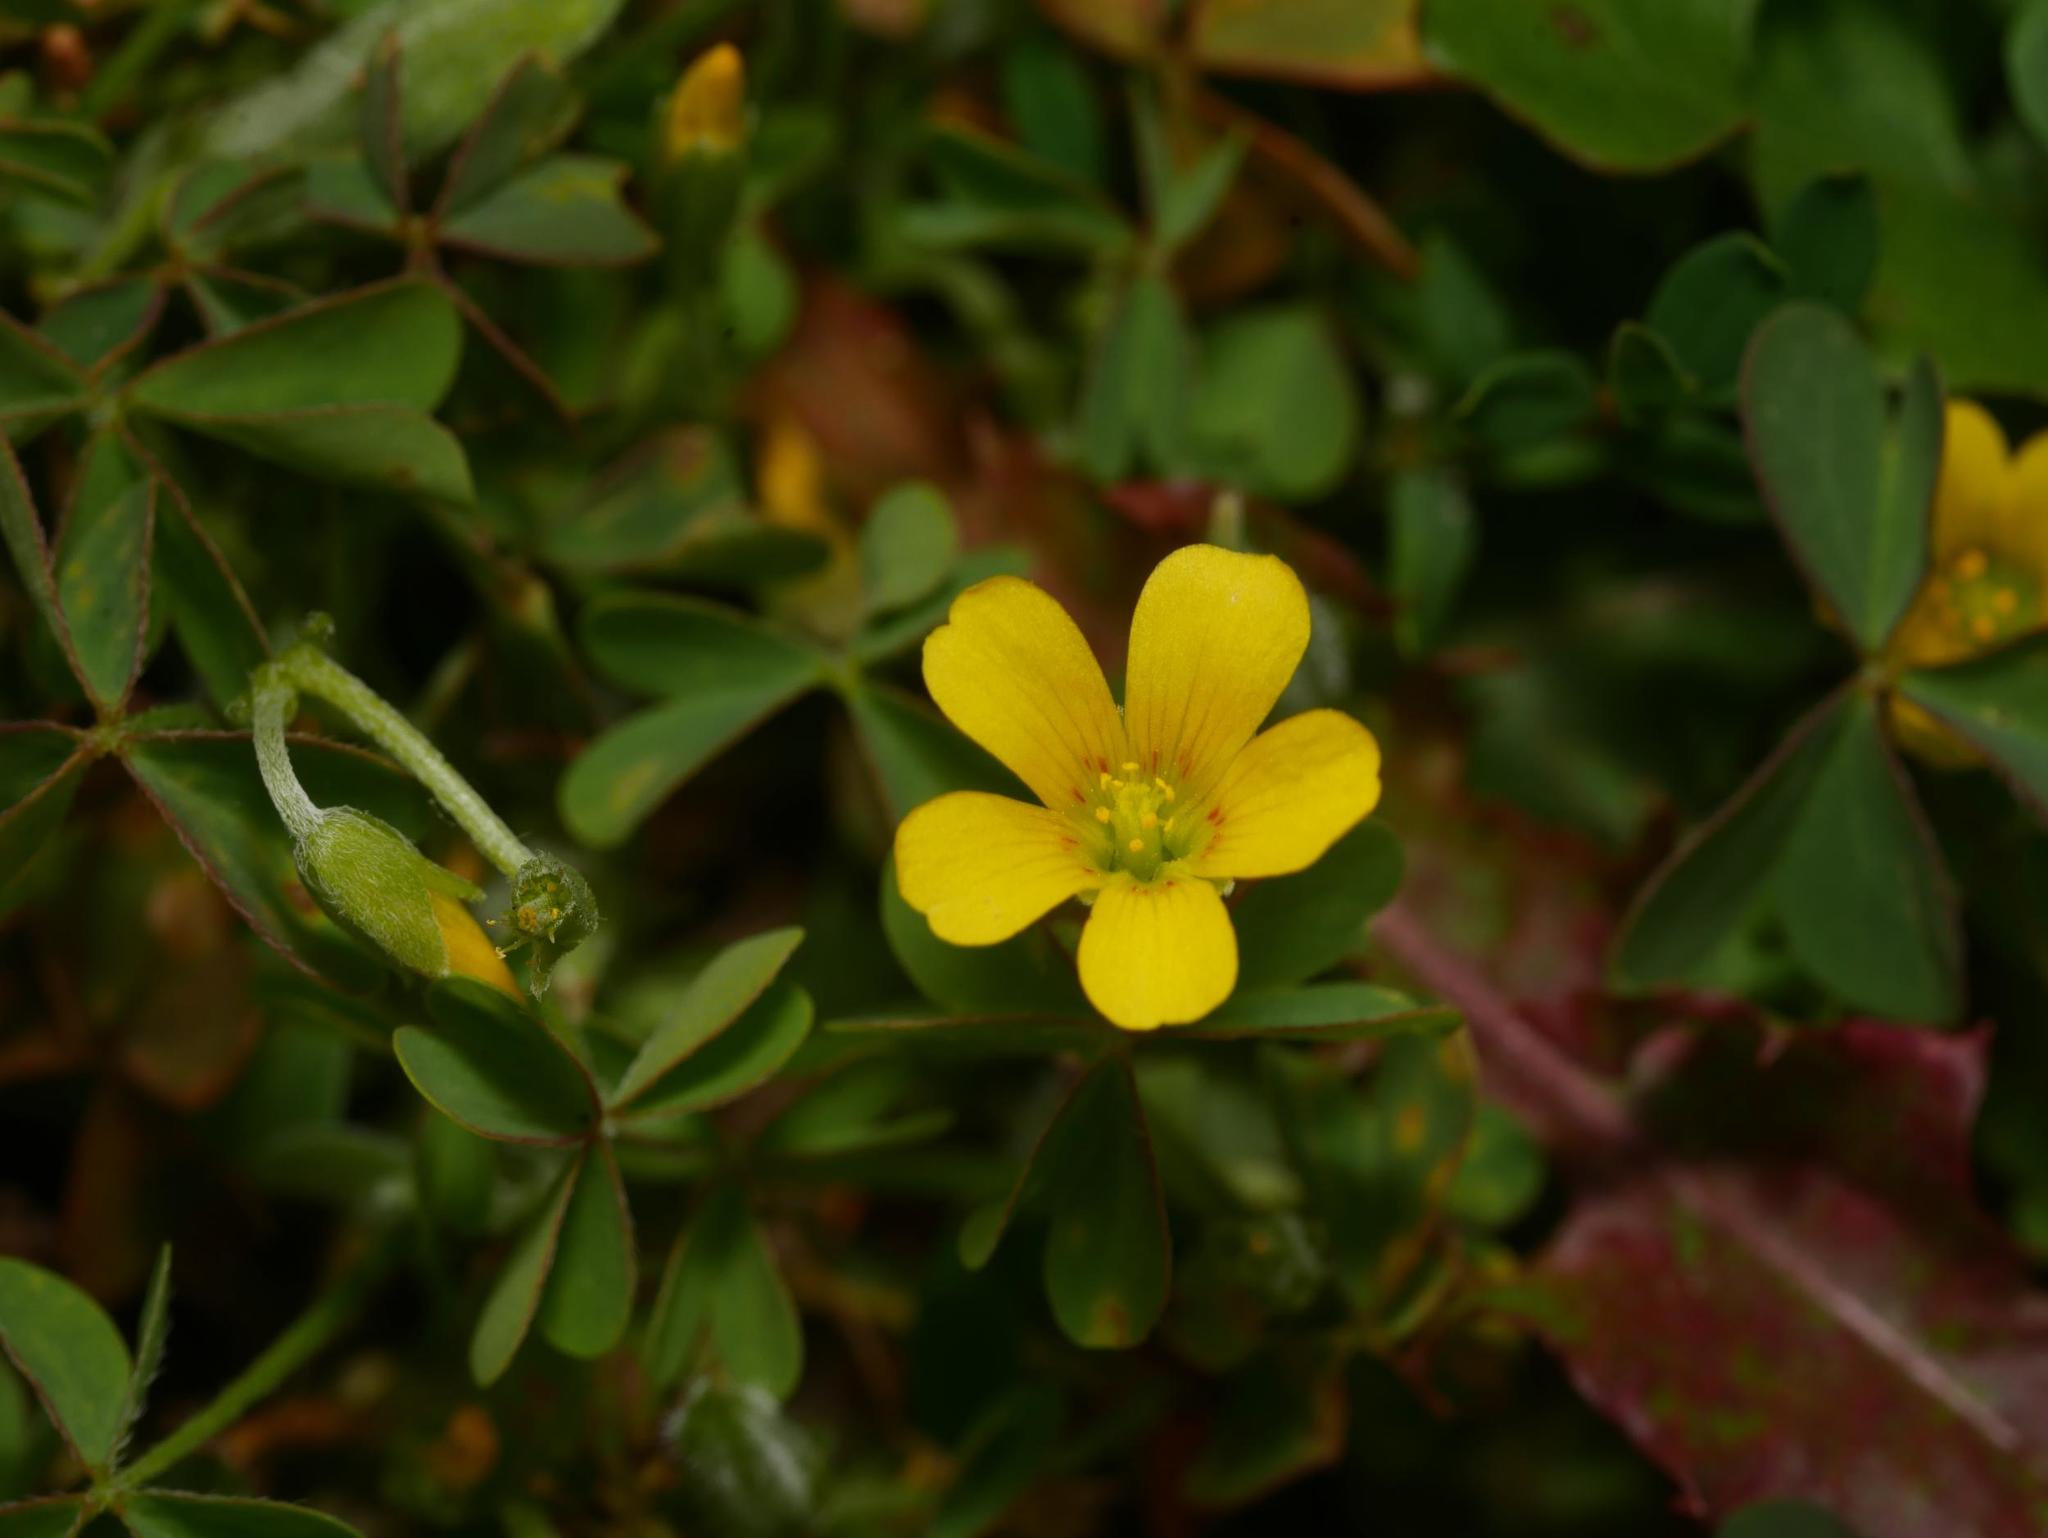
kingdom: Plantae
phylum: Tracheophyta
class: Magnoliopsida
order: Oxalidales
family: Oxalidaceae
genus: Oxalis
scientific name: Oxalis corniculata
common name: Procumbent yellow-sorrel
